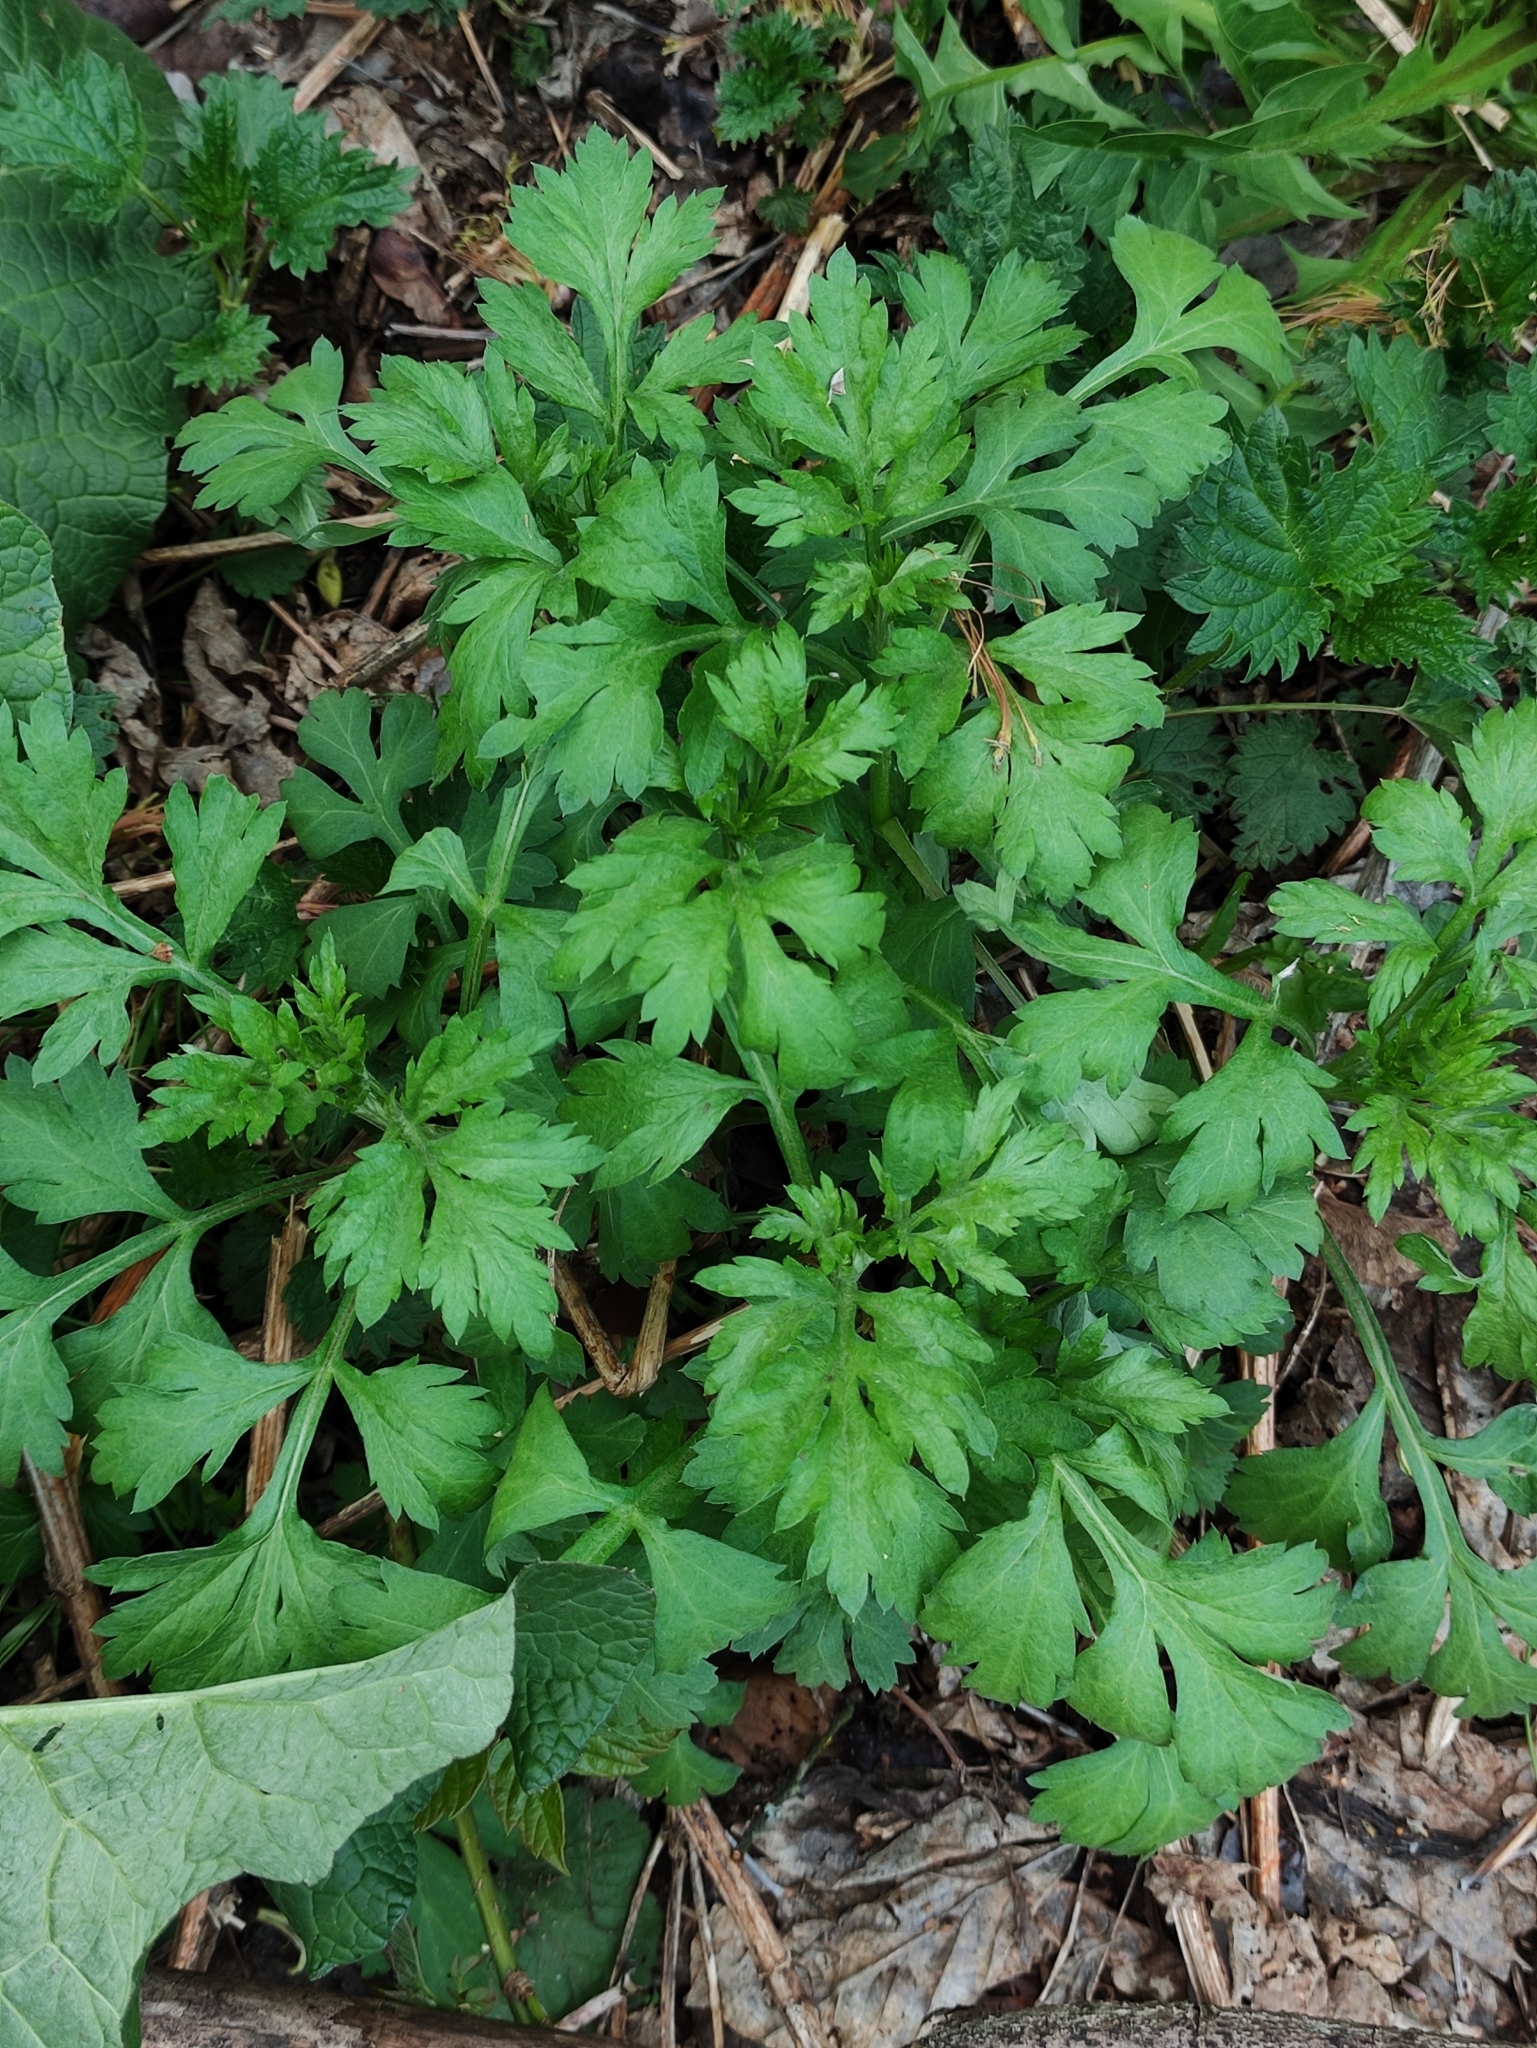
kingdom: Plantae
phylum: Tracheophyta
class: Magnoliopsida
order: Asterales
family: Asteraceae
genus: Artemisia
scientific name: Artemisia vulgaris
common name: Mugwort
